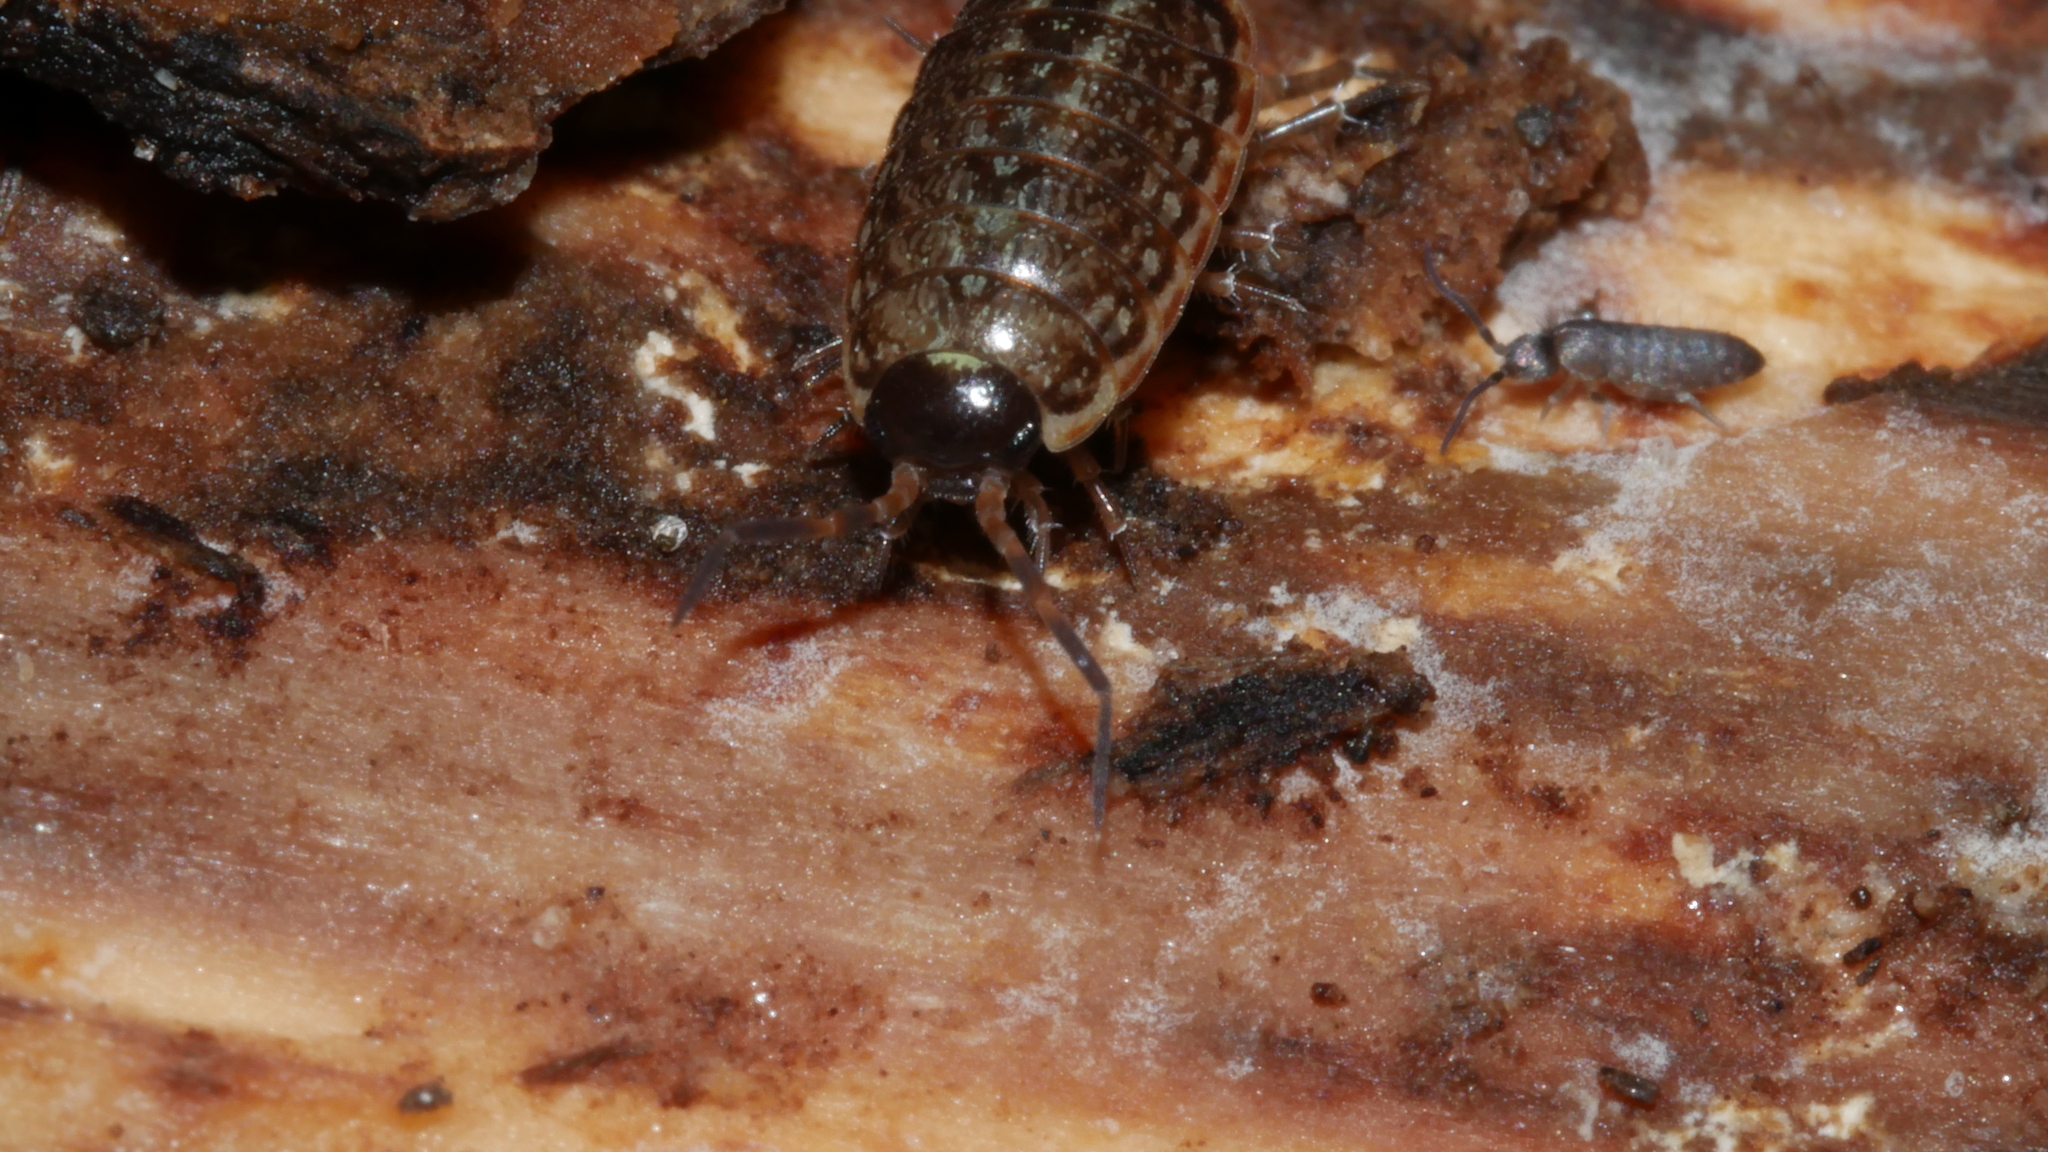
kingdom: Animalia
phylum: Arthropoda
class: Malacostraca
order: Isopoda
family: Philosciidae
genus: Philoscia
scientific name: Philoscia muscorum
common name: Common striped woodlouse
